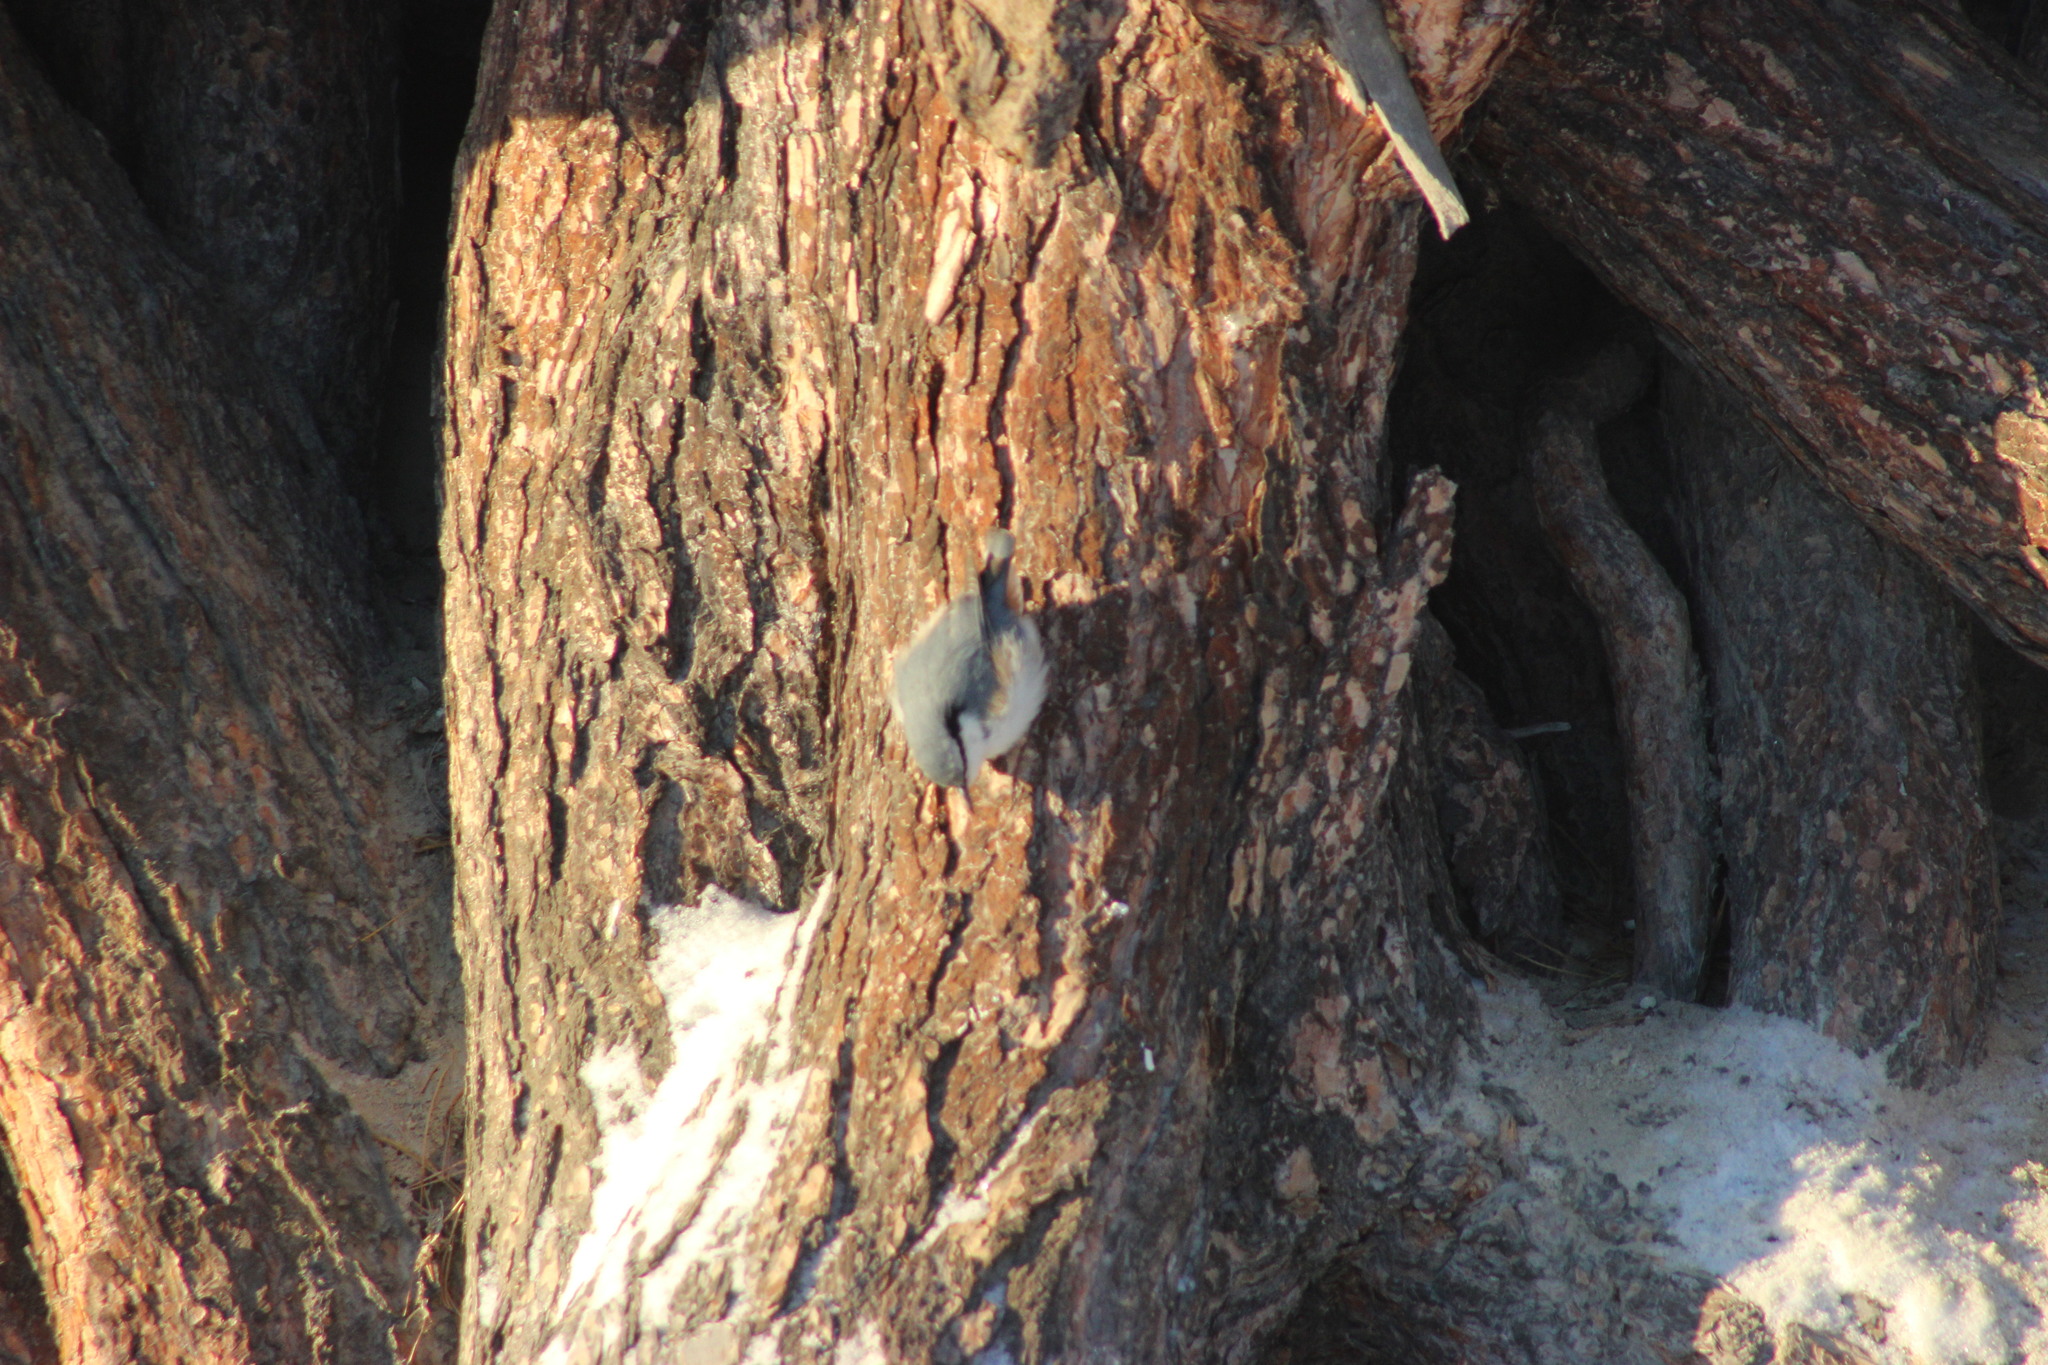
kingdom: Animalia
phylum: Chordata
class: Aves
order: Passeriformes
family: Sittidae
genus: Sitta
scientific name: Sitta europaea
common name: Eurasian nuthatch
